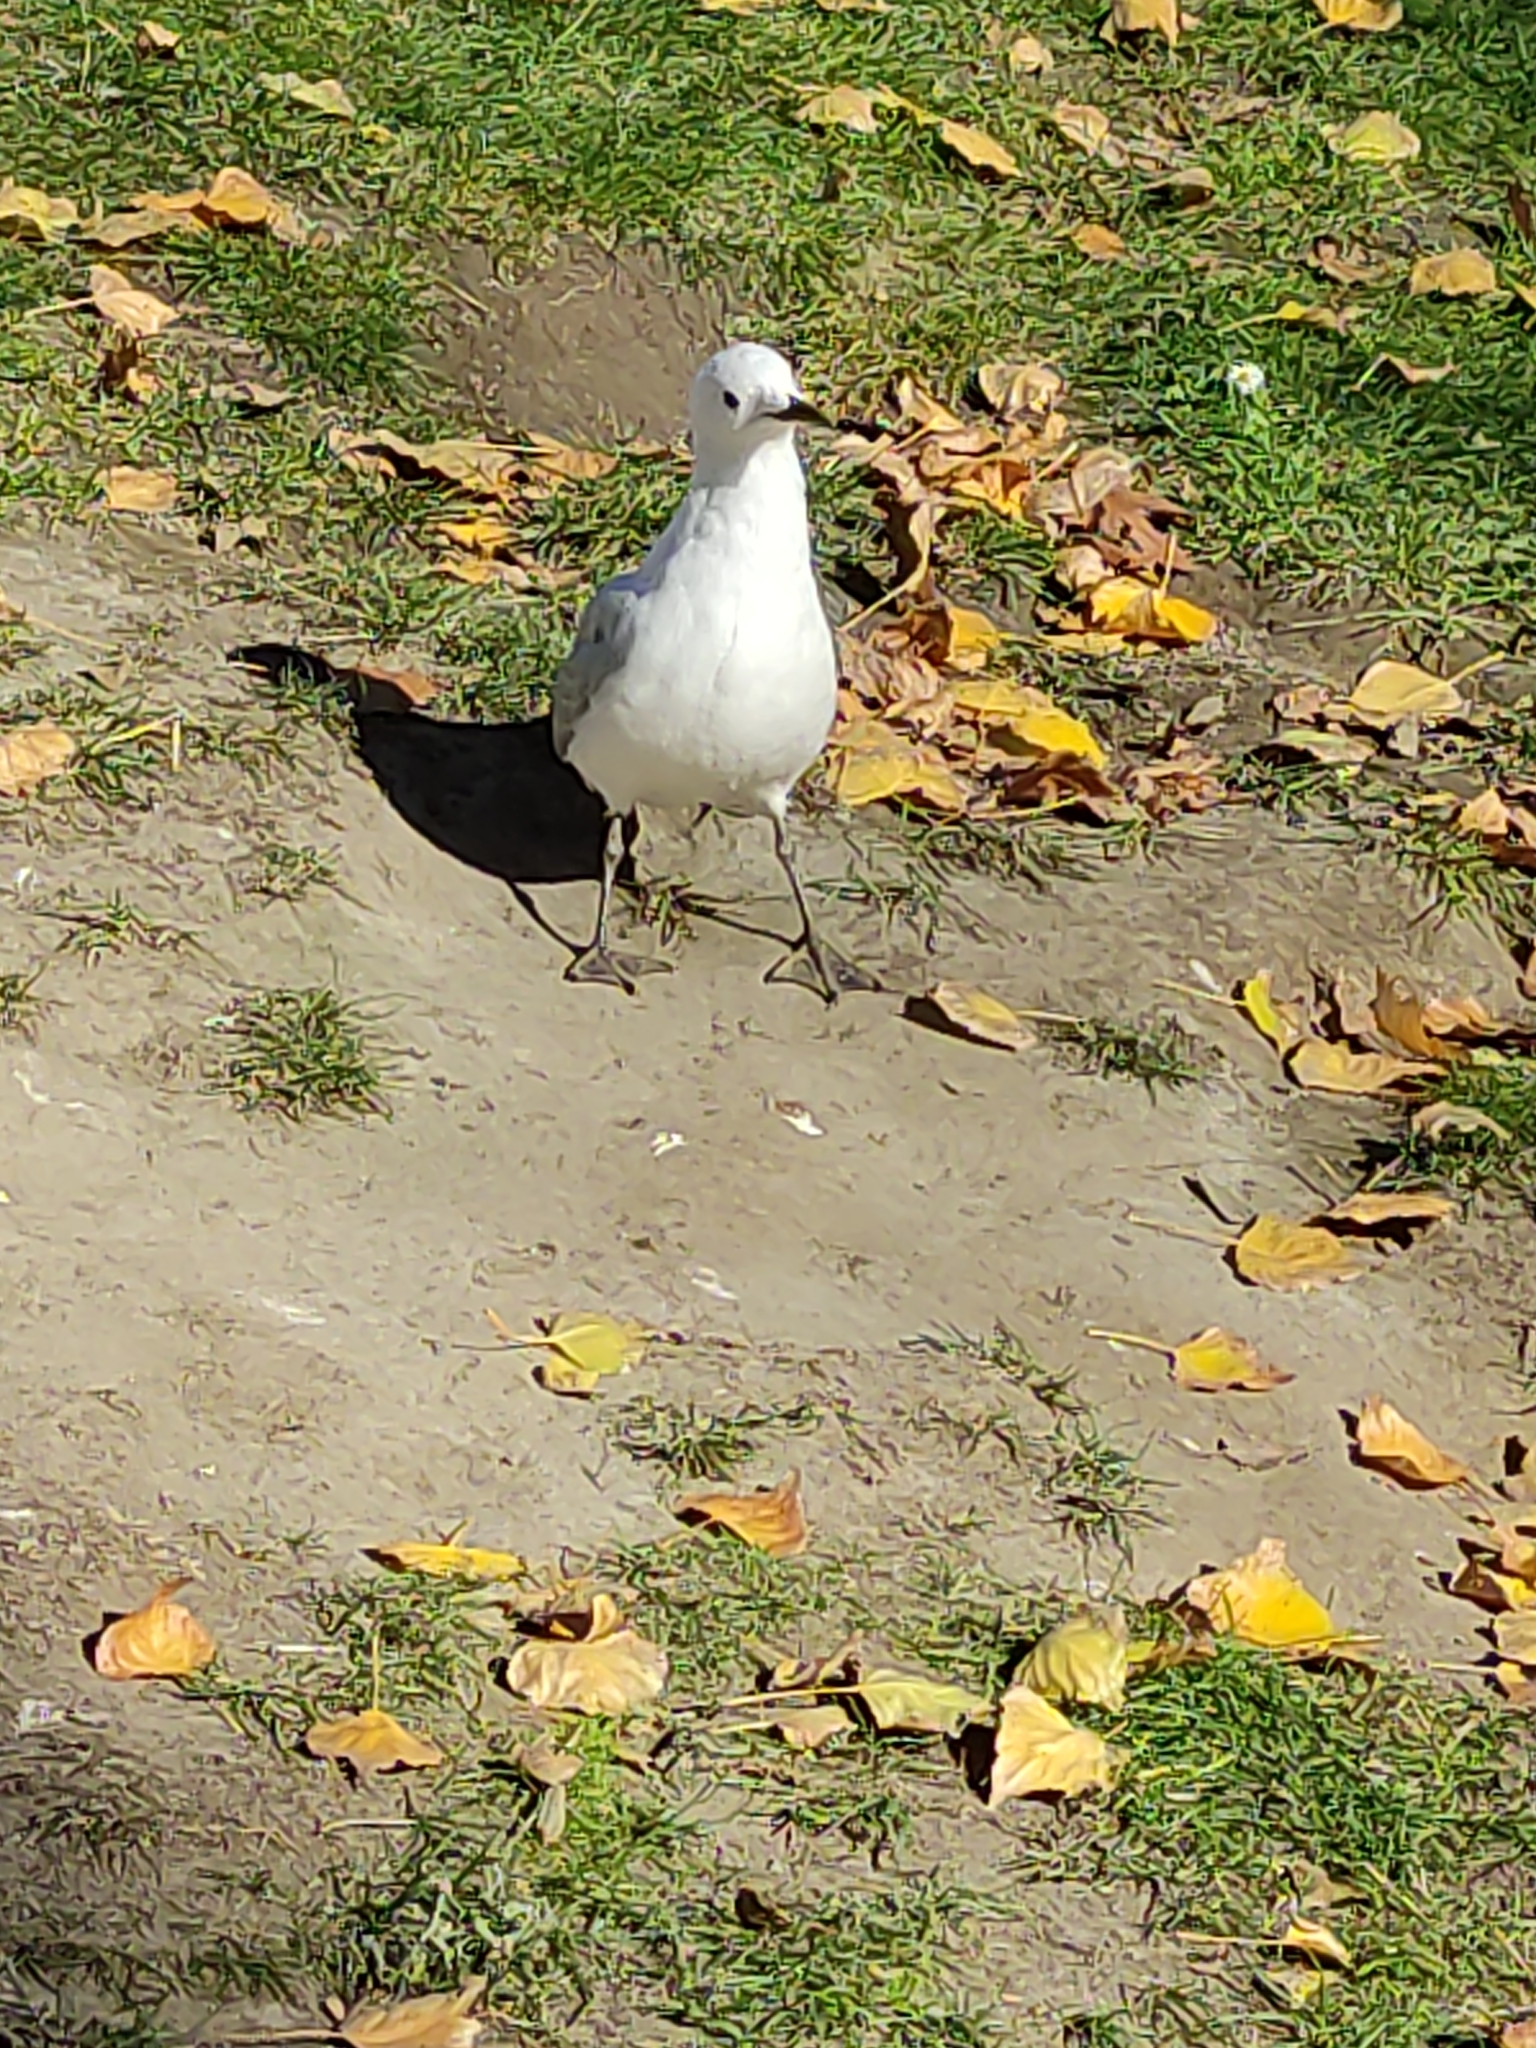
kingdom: Animalia
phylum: Chordata
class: Aves
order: Charadriiformes
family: Laridae
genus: Chroicocephalus
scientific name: Chroicocephalus novaehollandiae
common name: Silver gull
